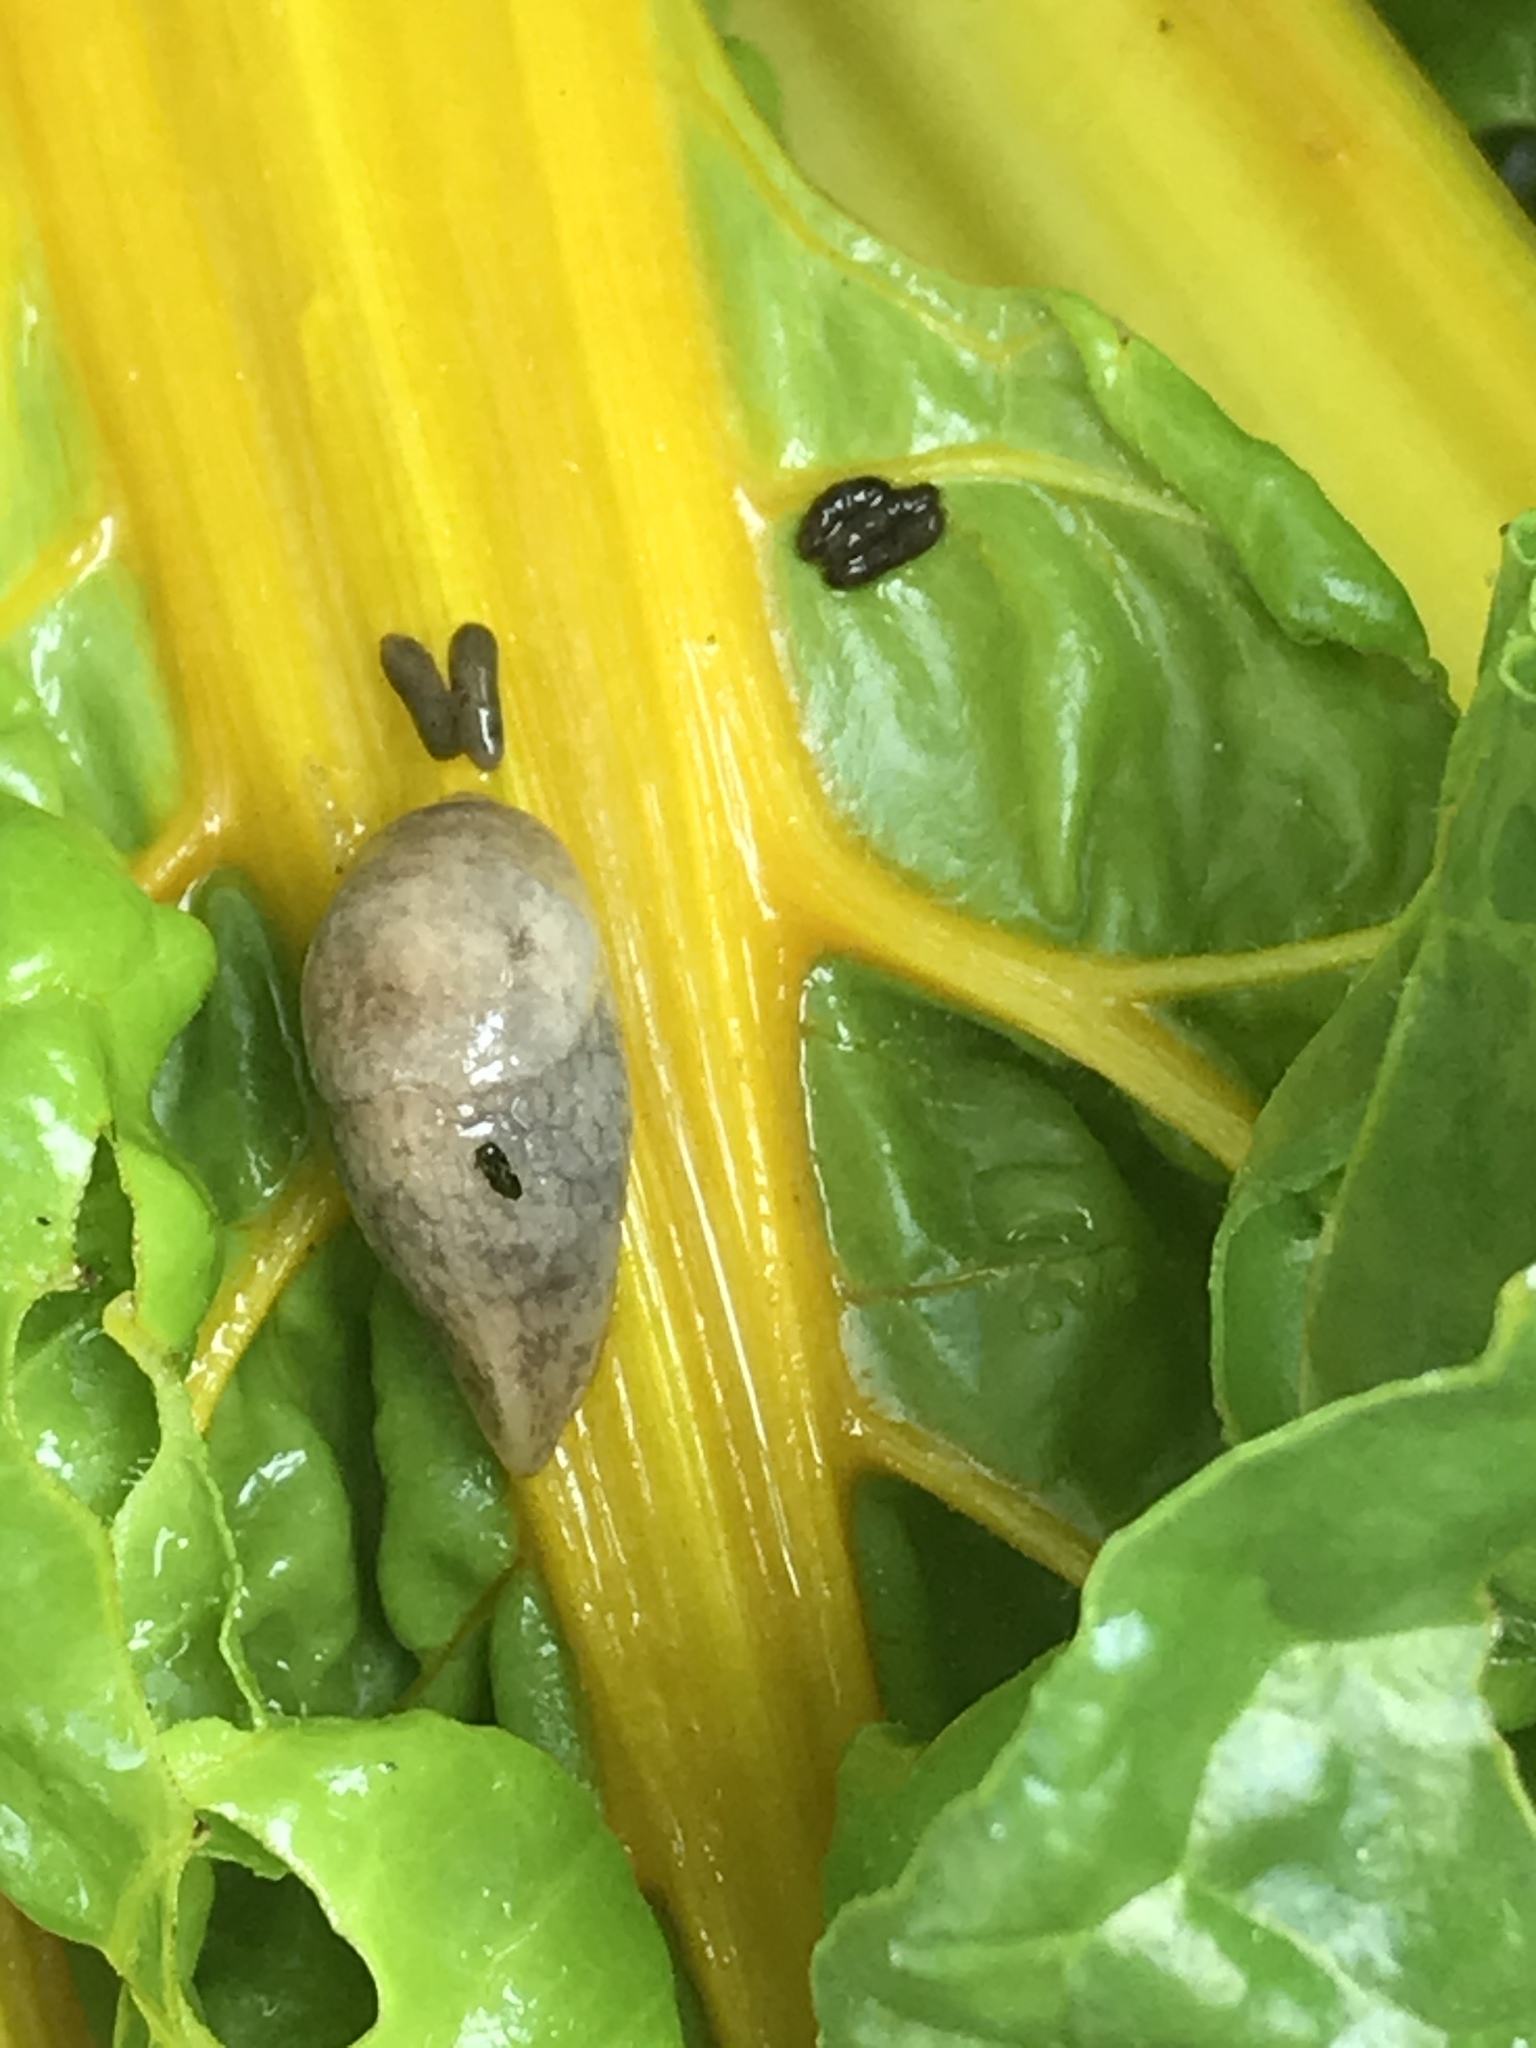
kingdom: Animalia
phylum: Mollusca
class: Gastropoda
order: Stylommatophora
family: Agriolimacidae
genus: Deroceras
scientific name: Deroceras reticulatum
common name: Gray field slug
